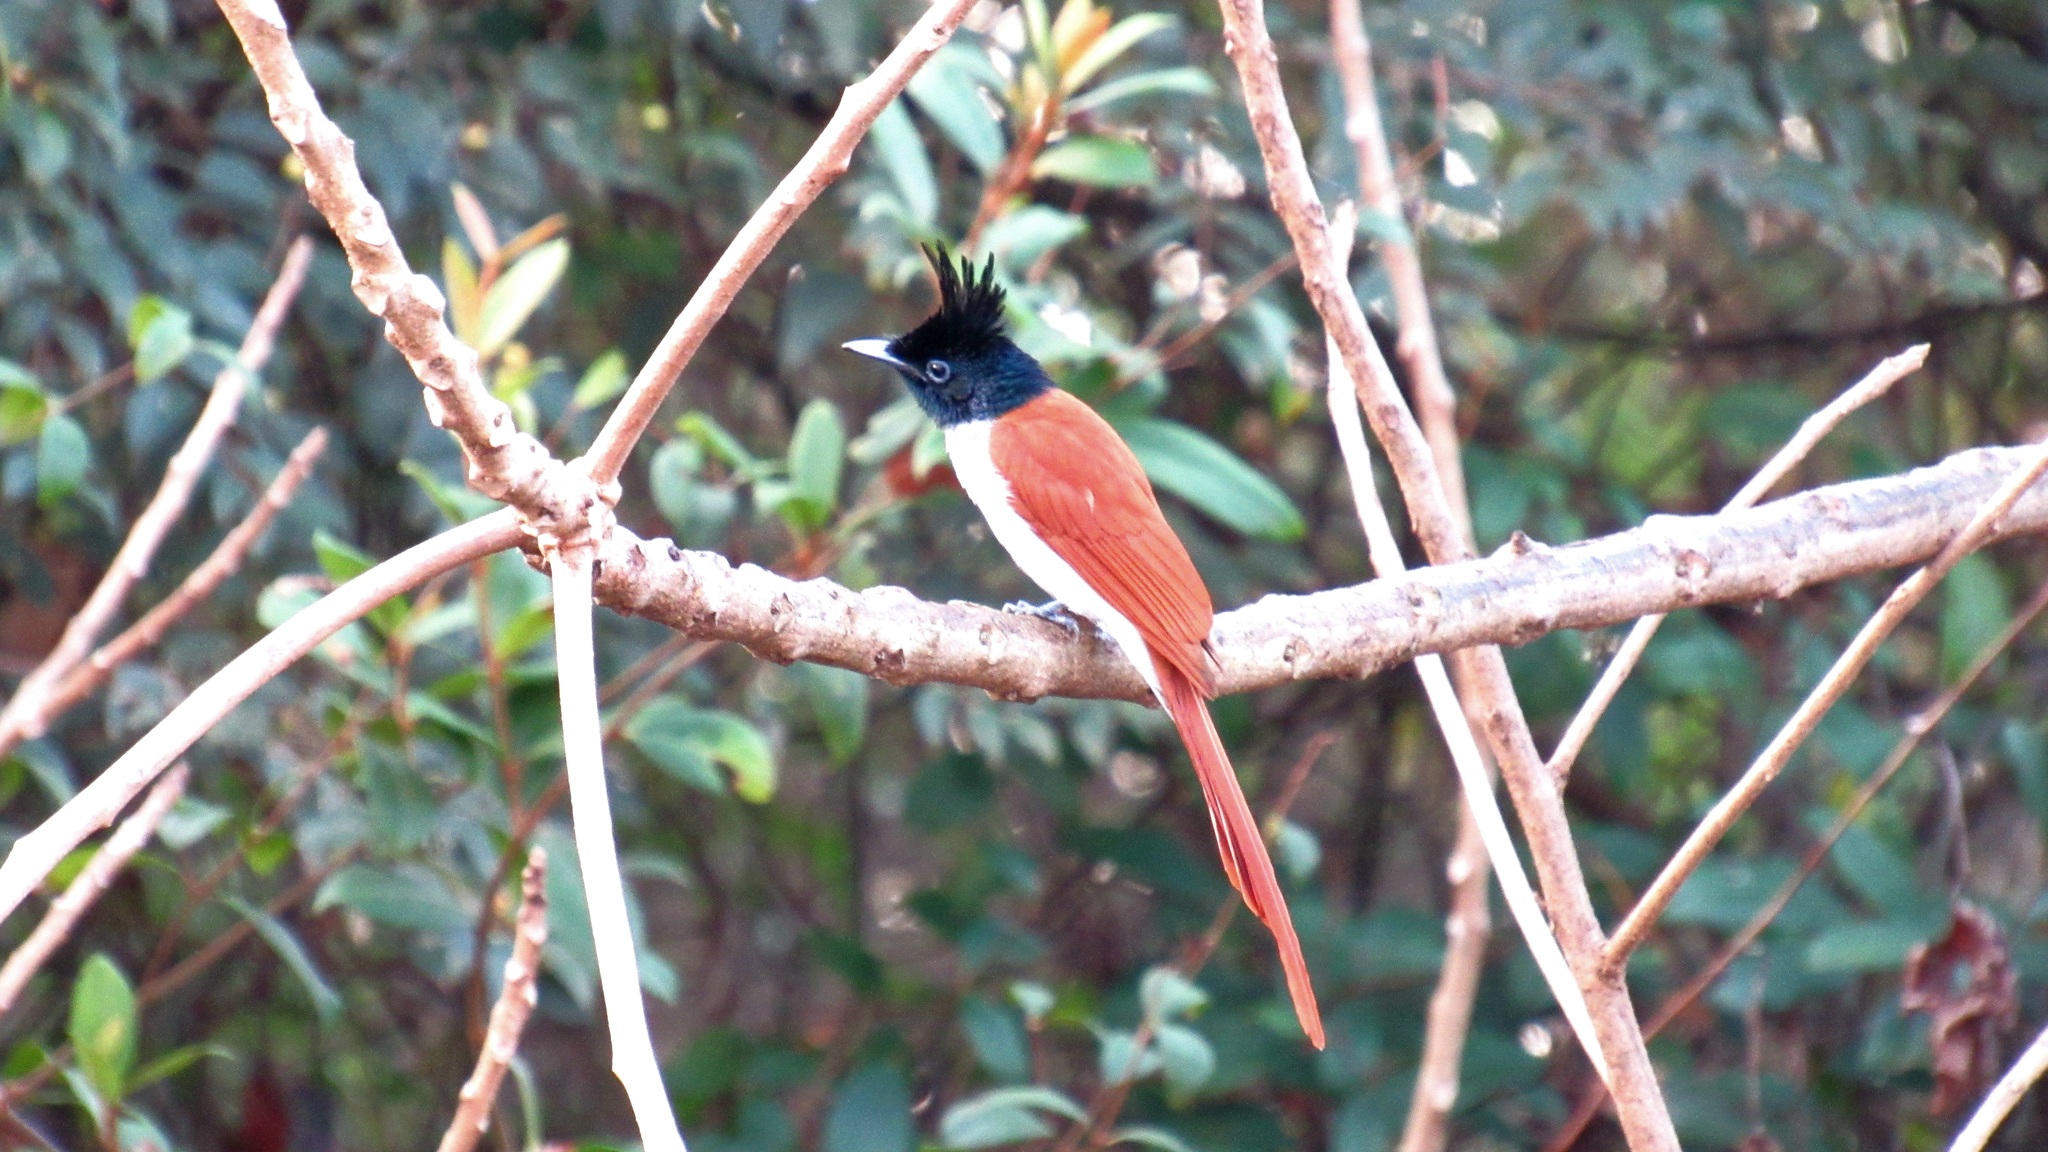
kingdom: Animalia
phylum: Chordata
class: Aves
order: Passeriformes
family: Monarchidae
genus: Terpsiphone
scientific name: Terpsiphone paradisi
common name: Indian paradise flycatcher
